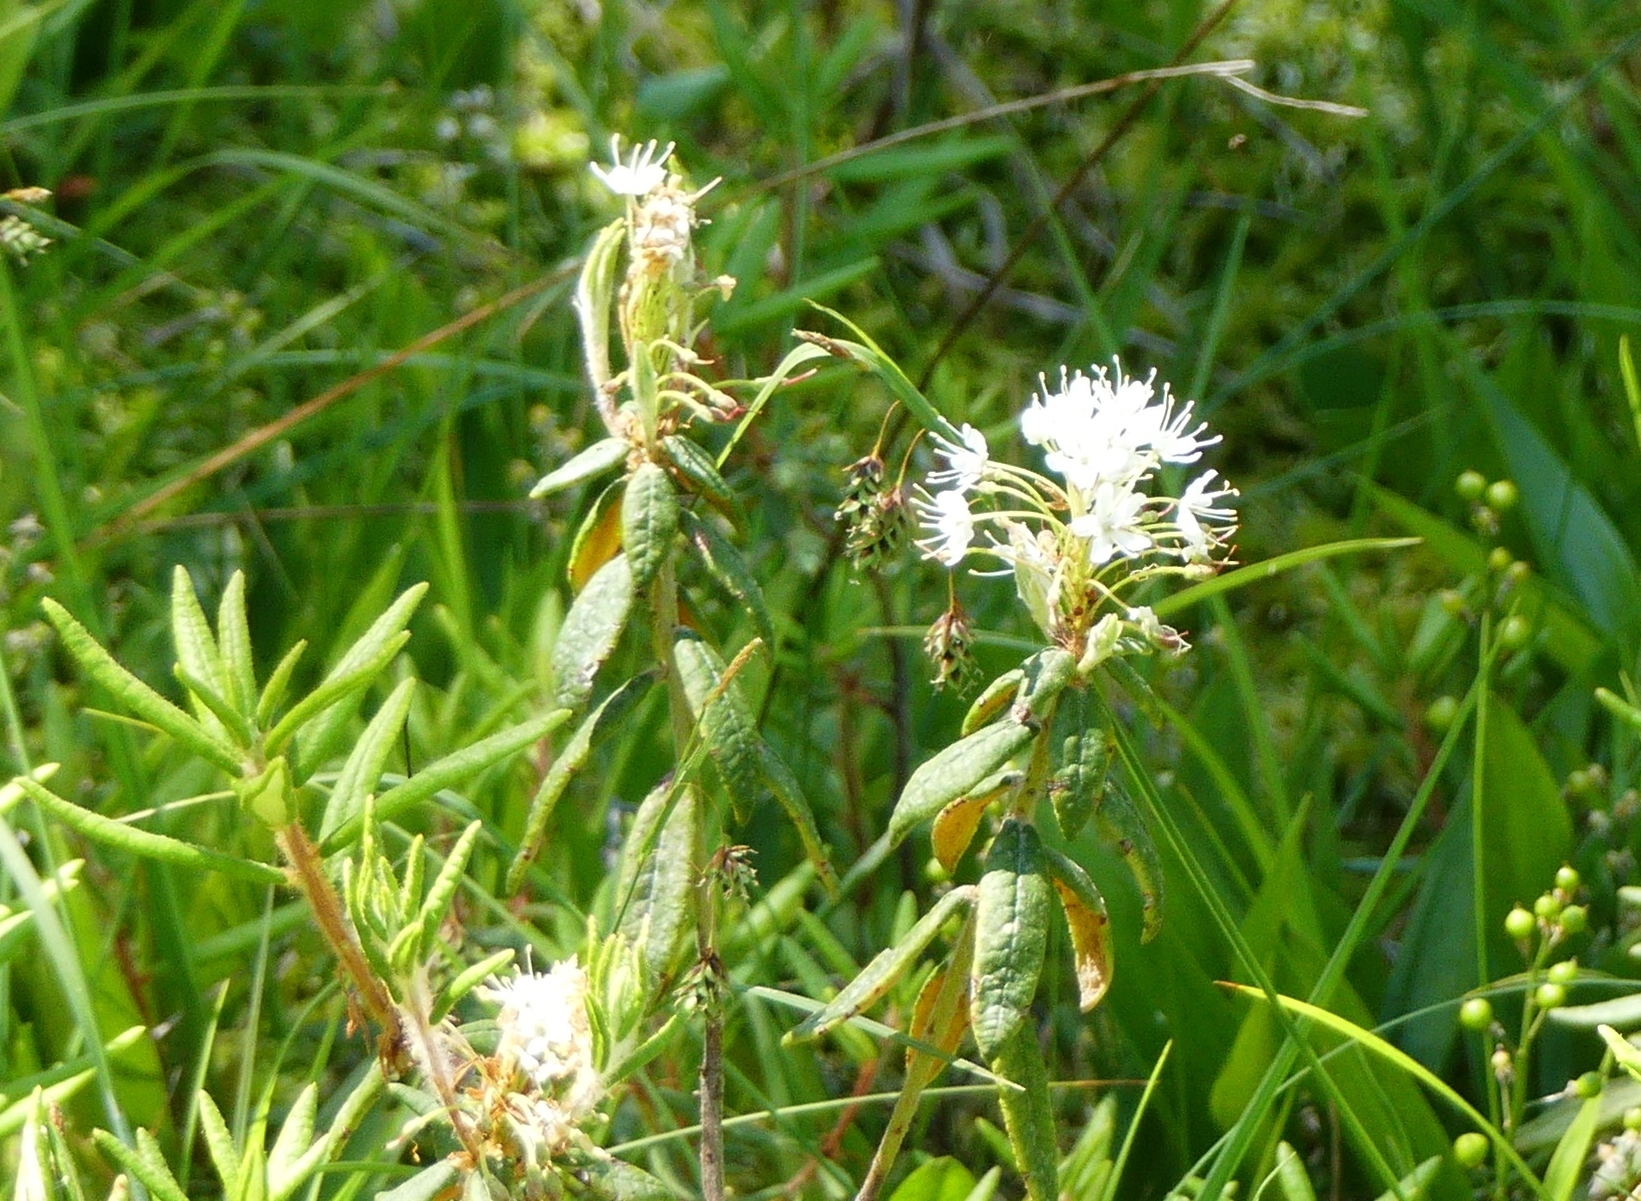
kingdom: Plantae
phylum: Tracheophyta
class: Magnoliopsida
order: Ericales
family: Ericaceae
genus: Rhododendron
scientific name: Rhododendron groenlandicum
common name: Bog labrador tea
